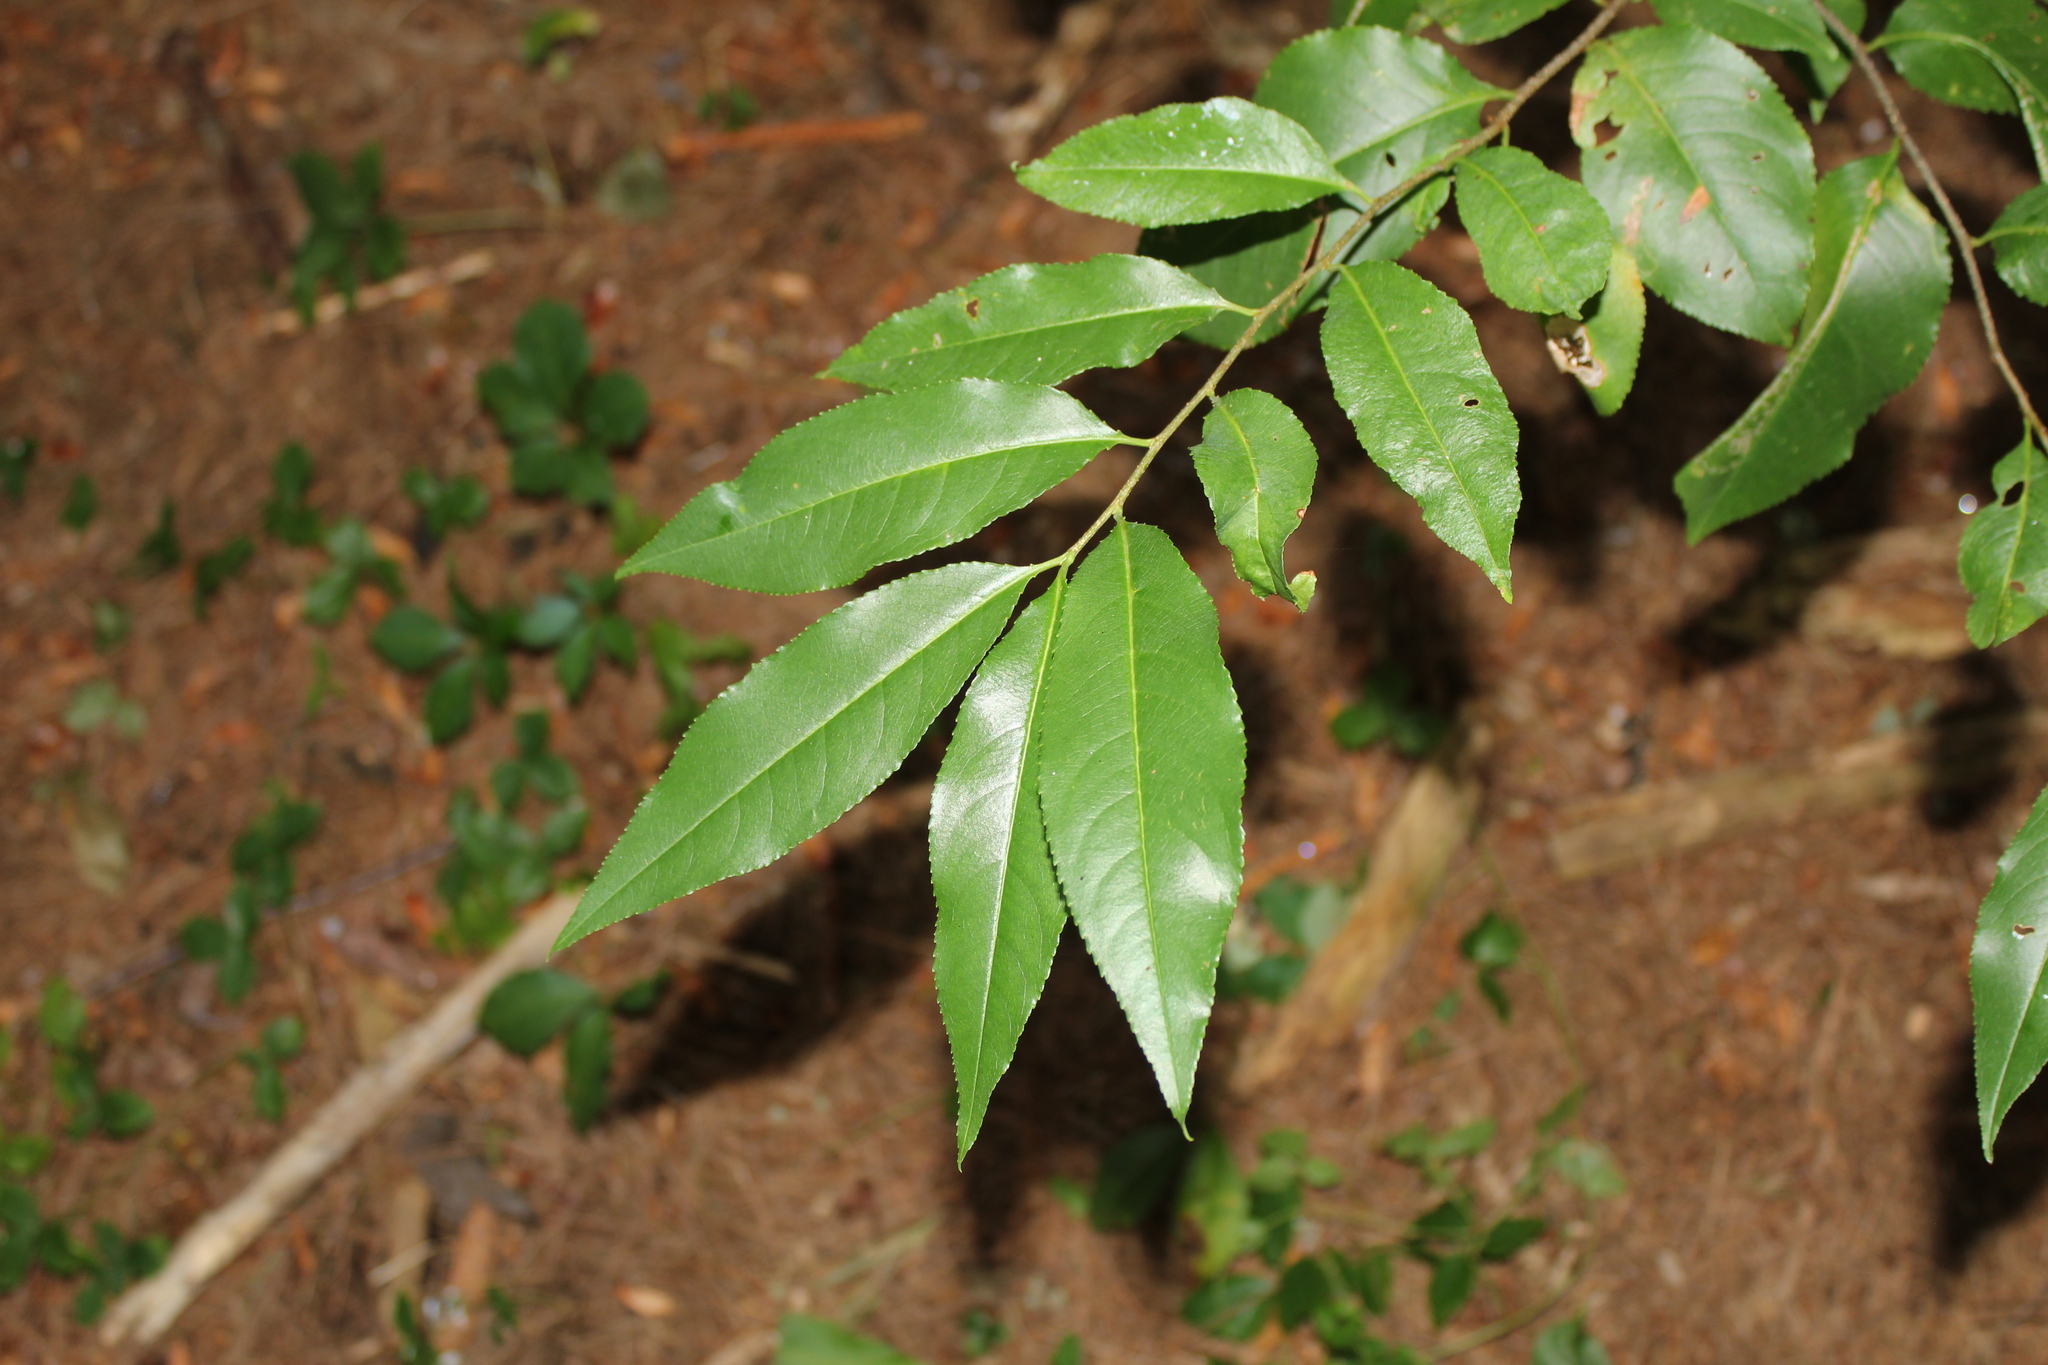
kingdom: Plantae
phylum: Tracheophyta
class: Magnoliopsida
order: Rosales
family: Rosaceae
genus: Prunus
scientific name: Prunus serotina
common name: Black cherry
